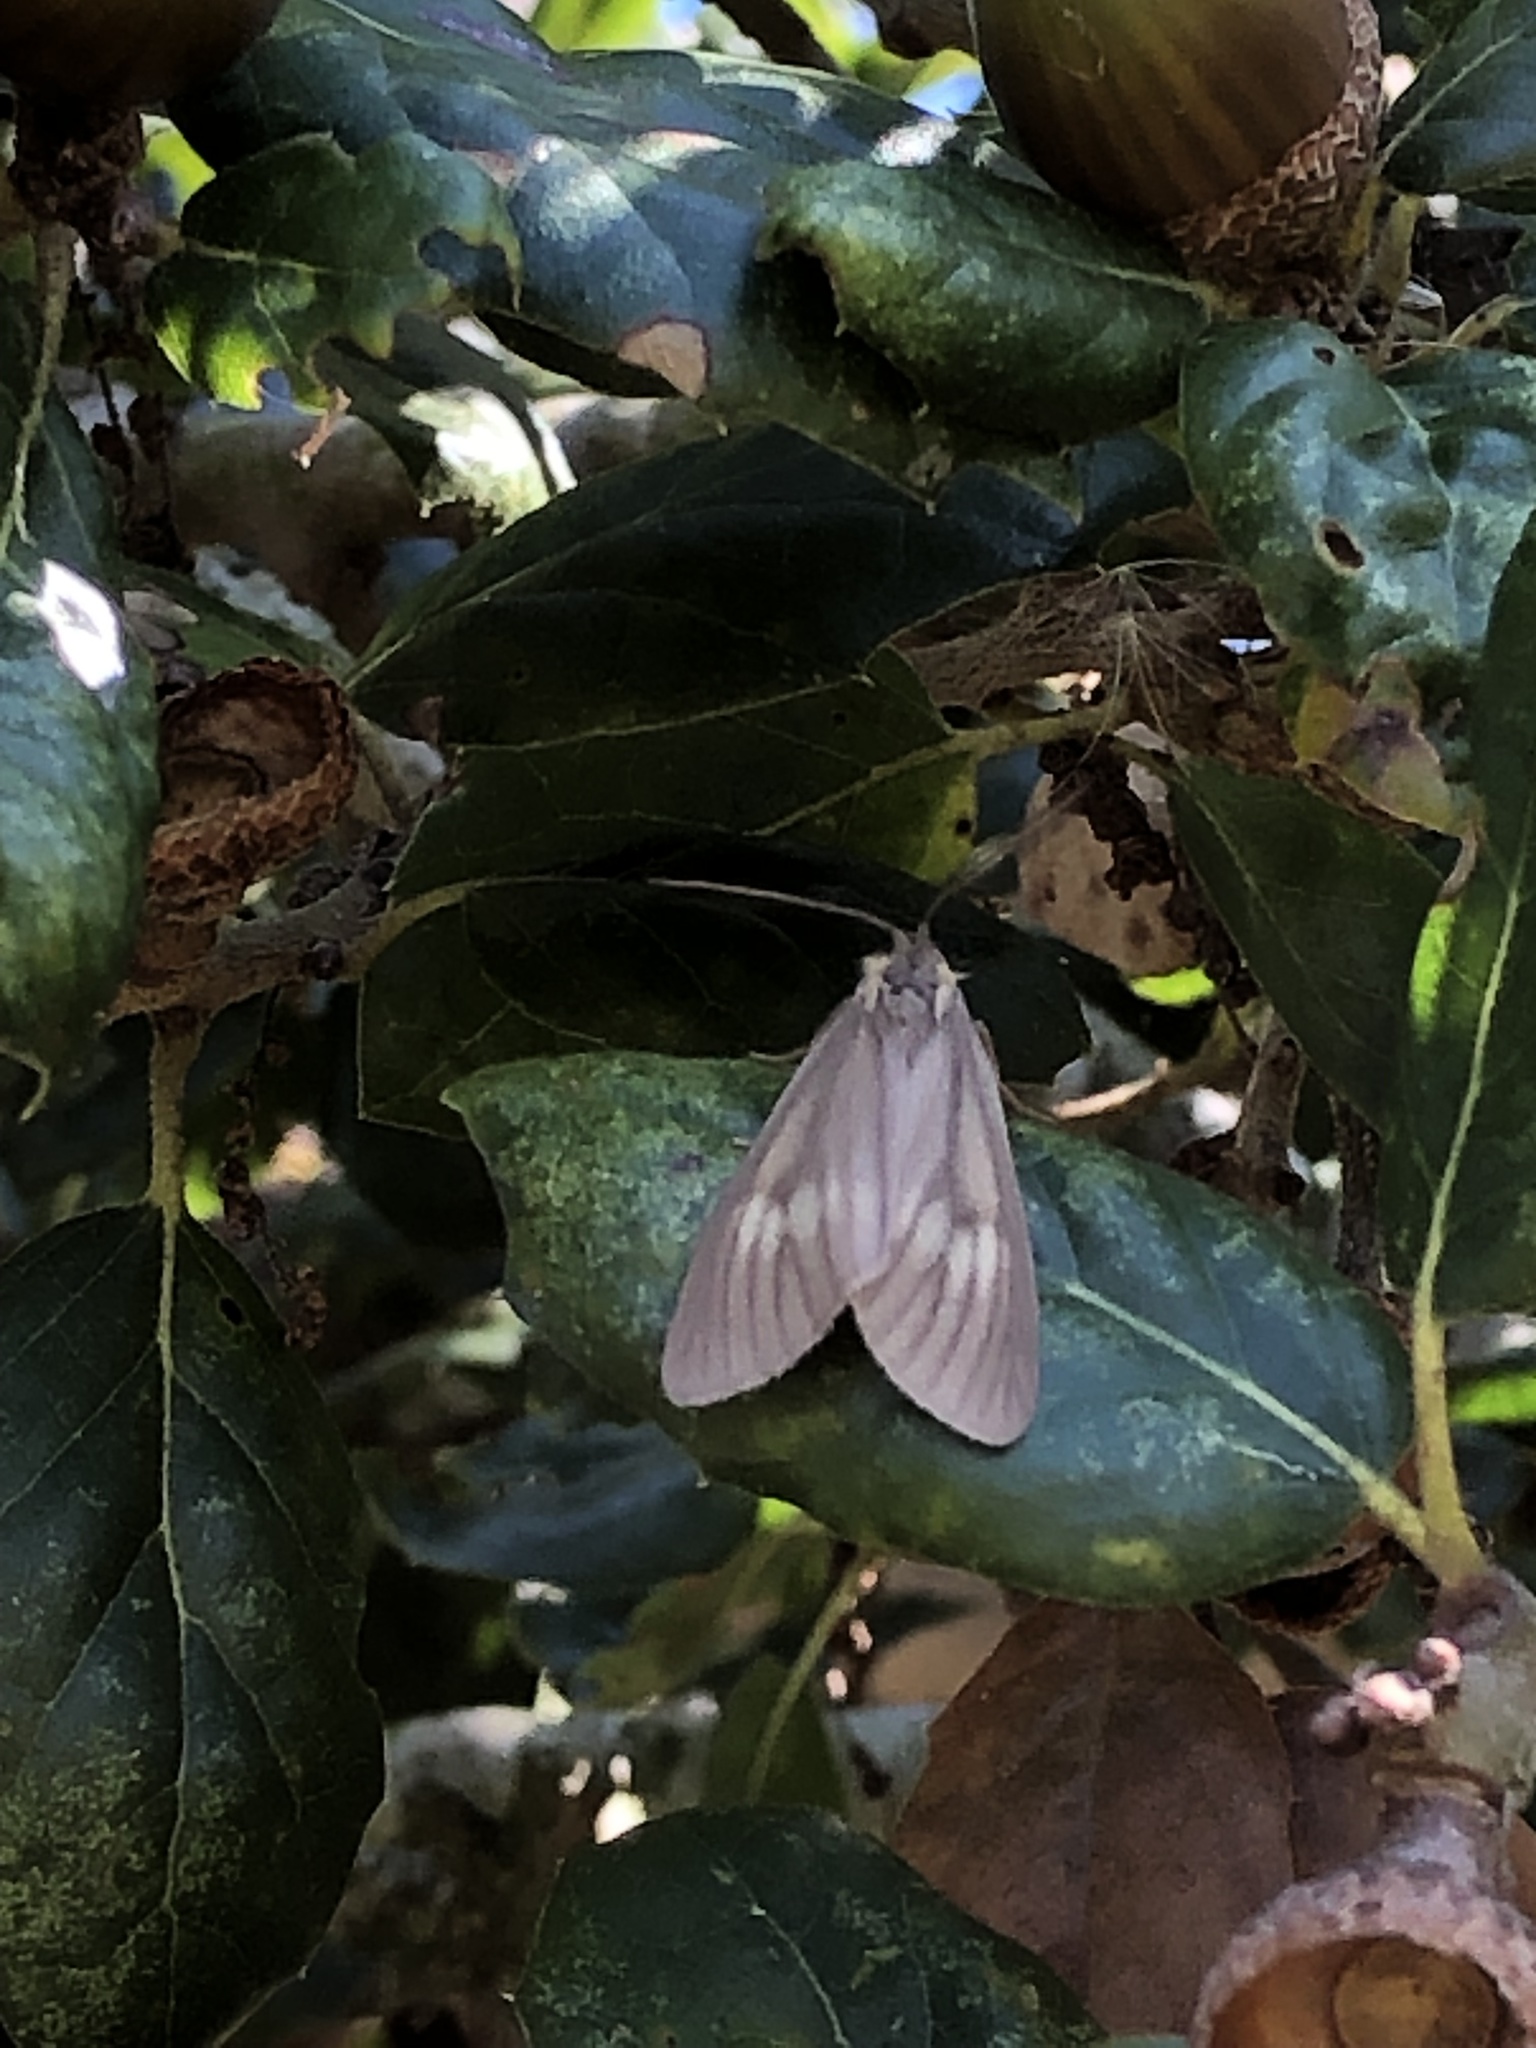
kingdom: Animalia
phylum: Arthropoda
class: Insecta
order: Lepidoptera
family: Notodontidae
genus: Phryganidia
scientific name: Phryganidia californica
